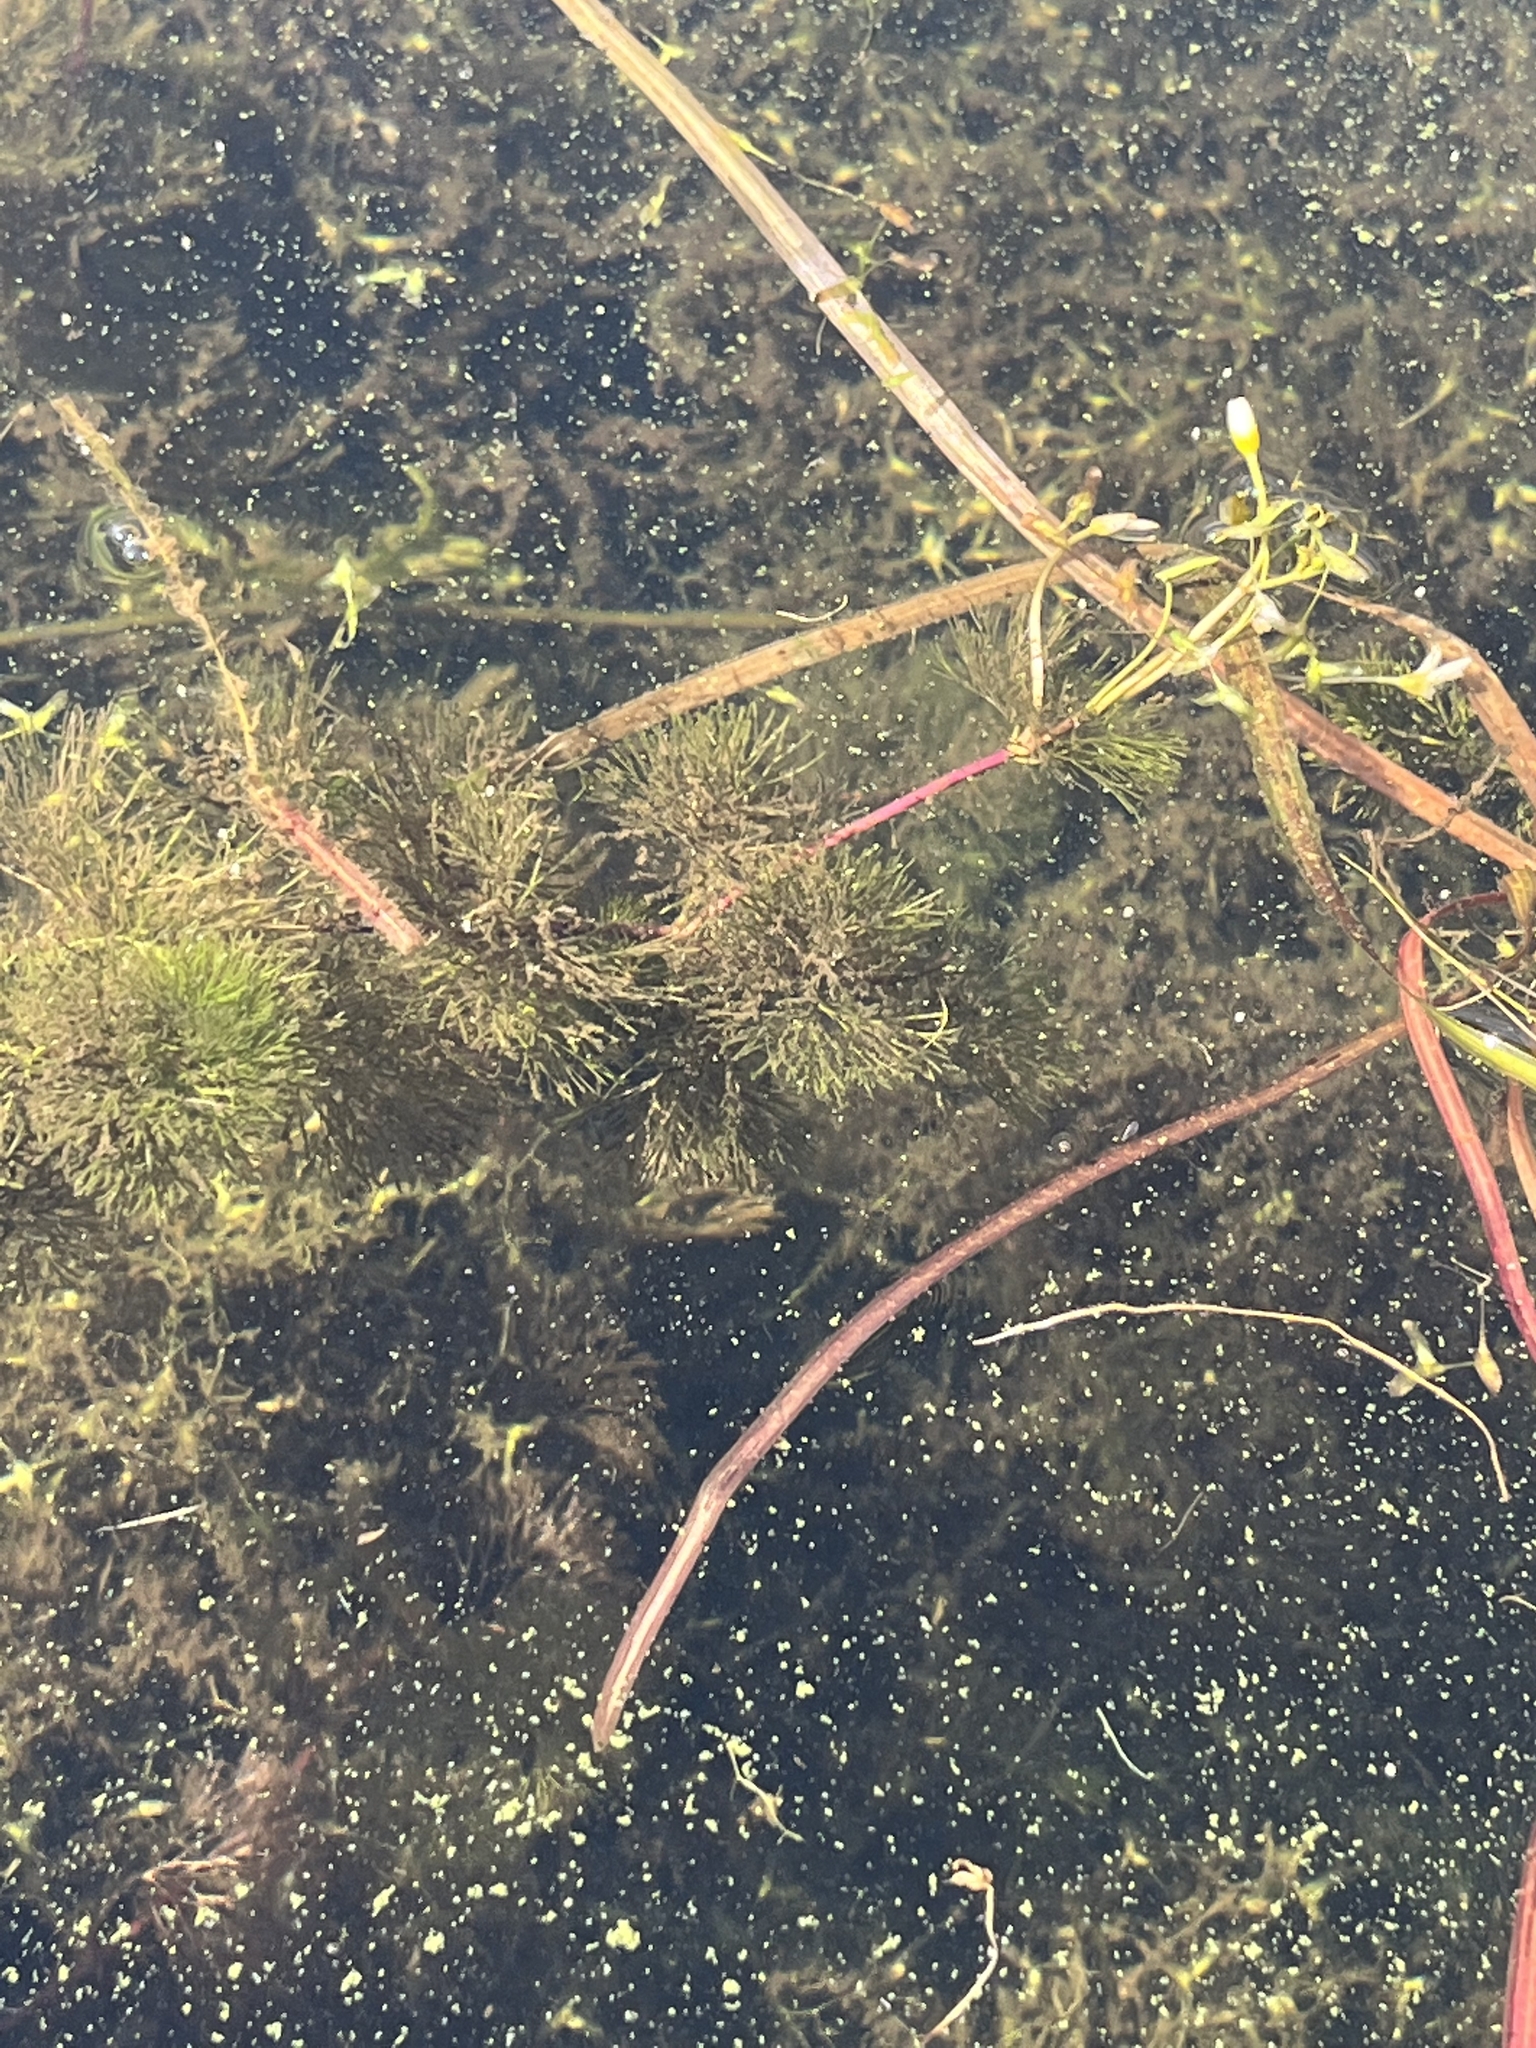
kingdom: Plantae
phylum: Tracheophyta
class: Magnoliopsida
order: Nymphaeales
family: Cabombaceae
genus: Cabomba
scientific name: Cabomba caroliniana
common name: Fanwort
